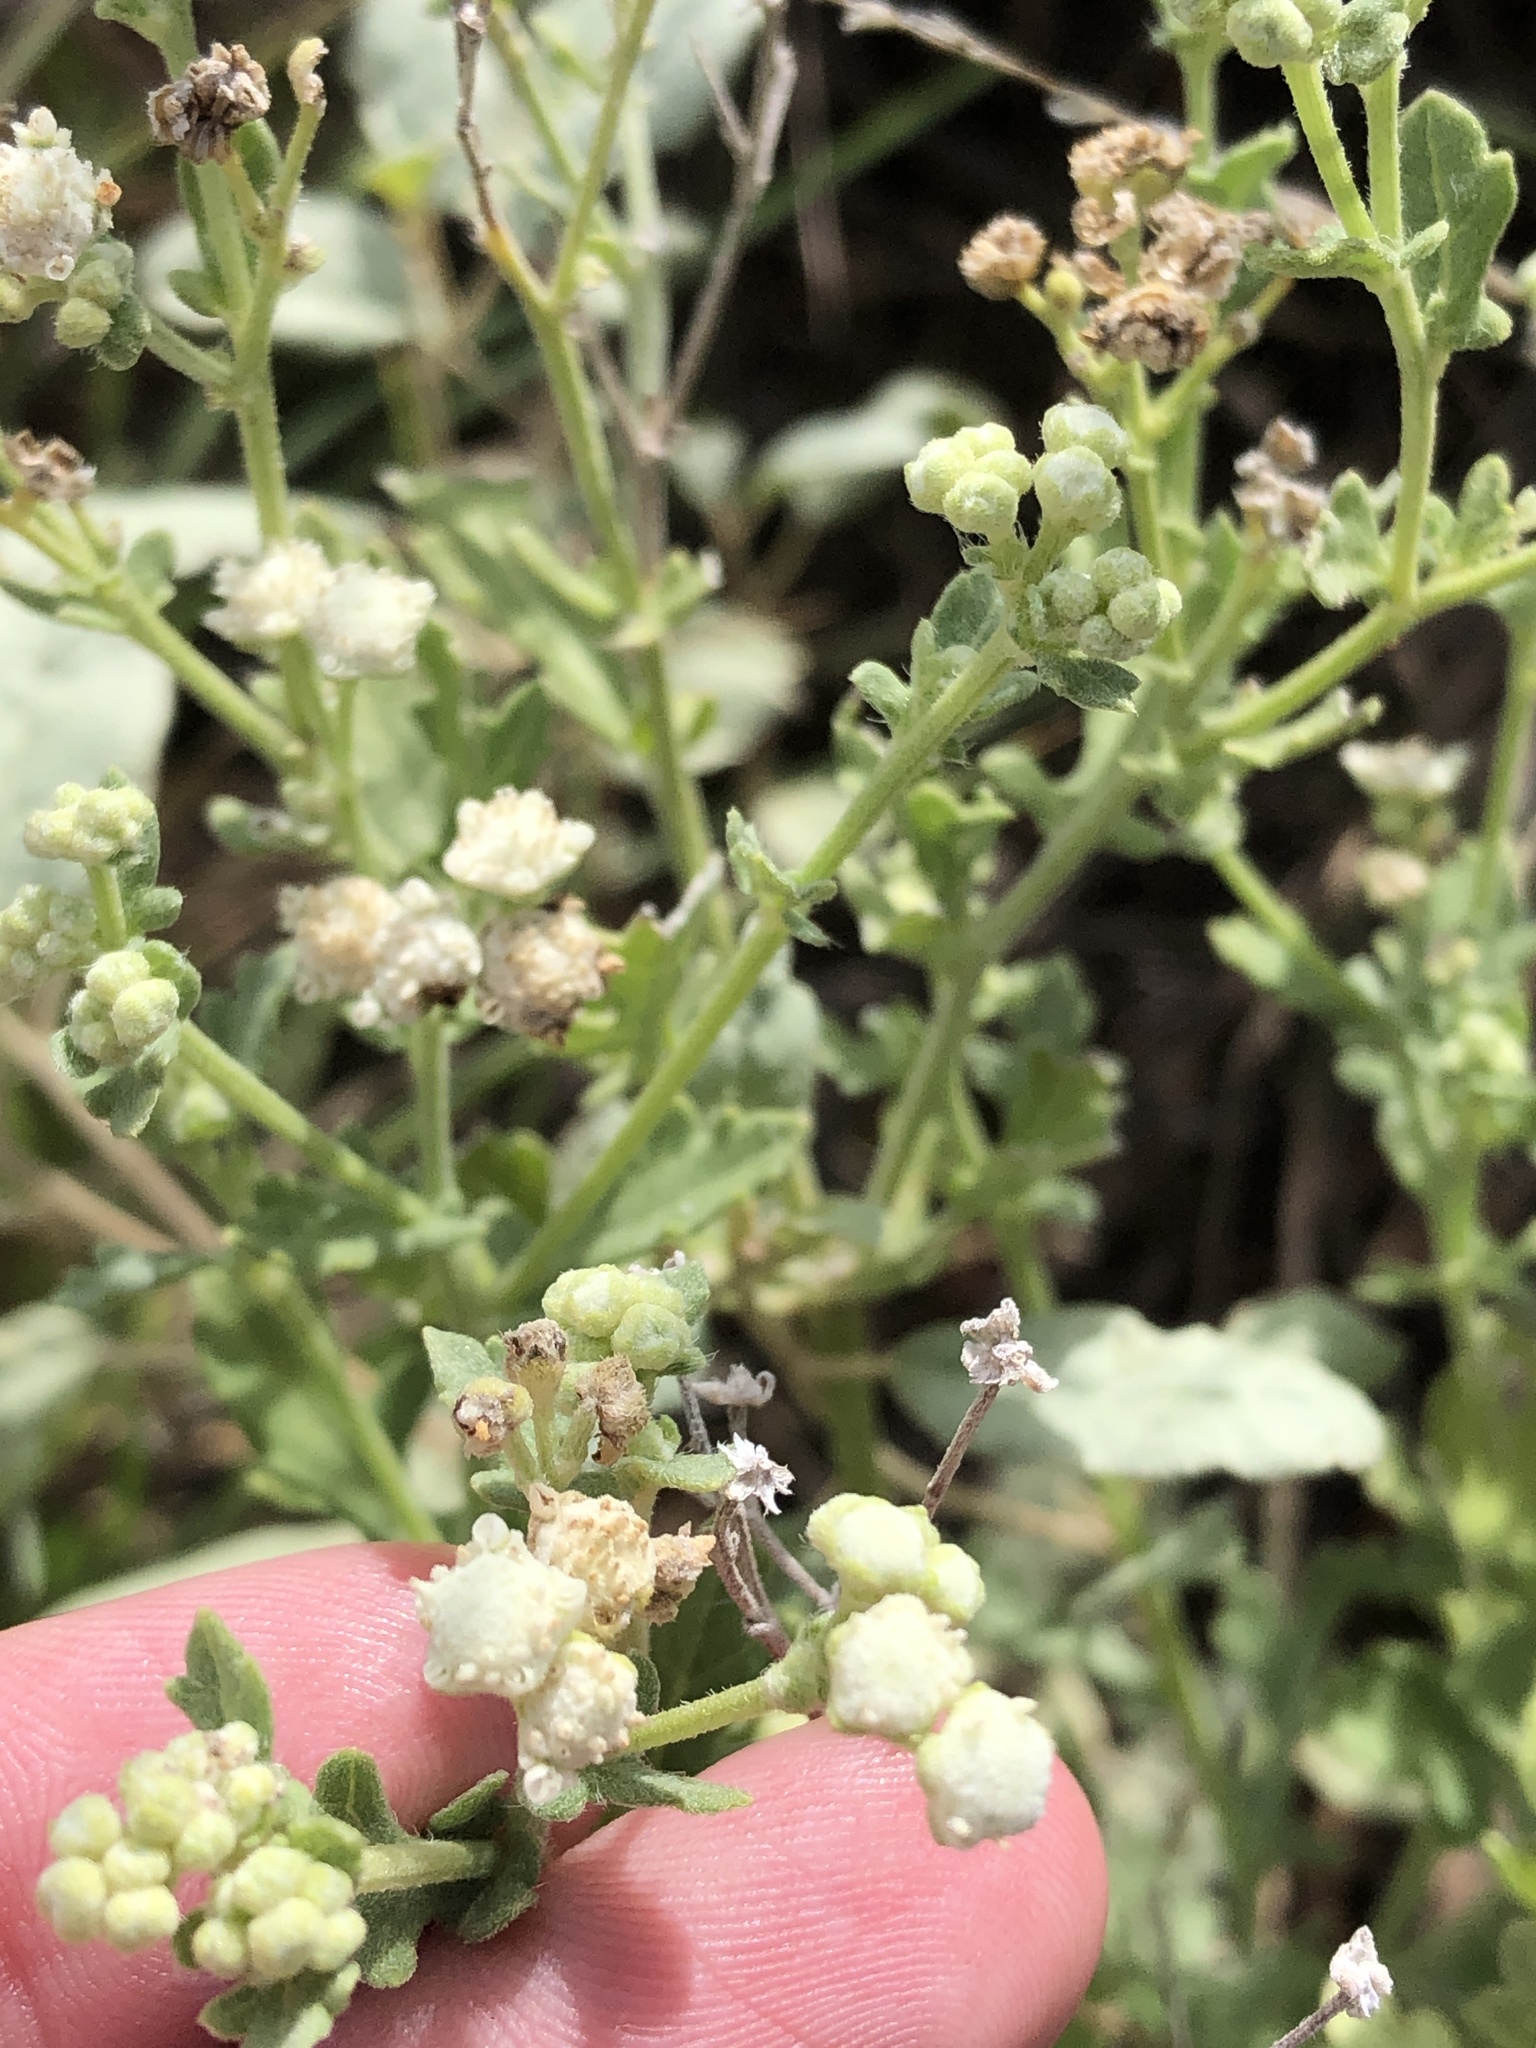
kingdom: Plantae
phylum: Tracheophyta
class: Magnoliopsida
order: Asterales
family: Asteraceae
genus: Parthenium
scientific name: Parthenium confertum
